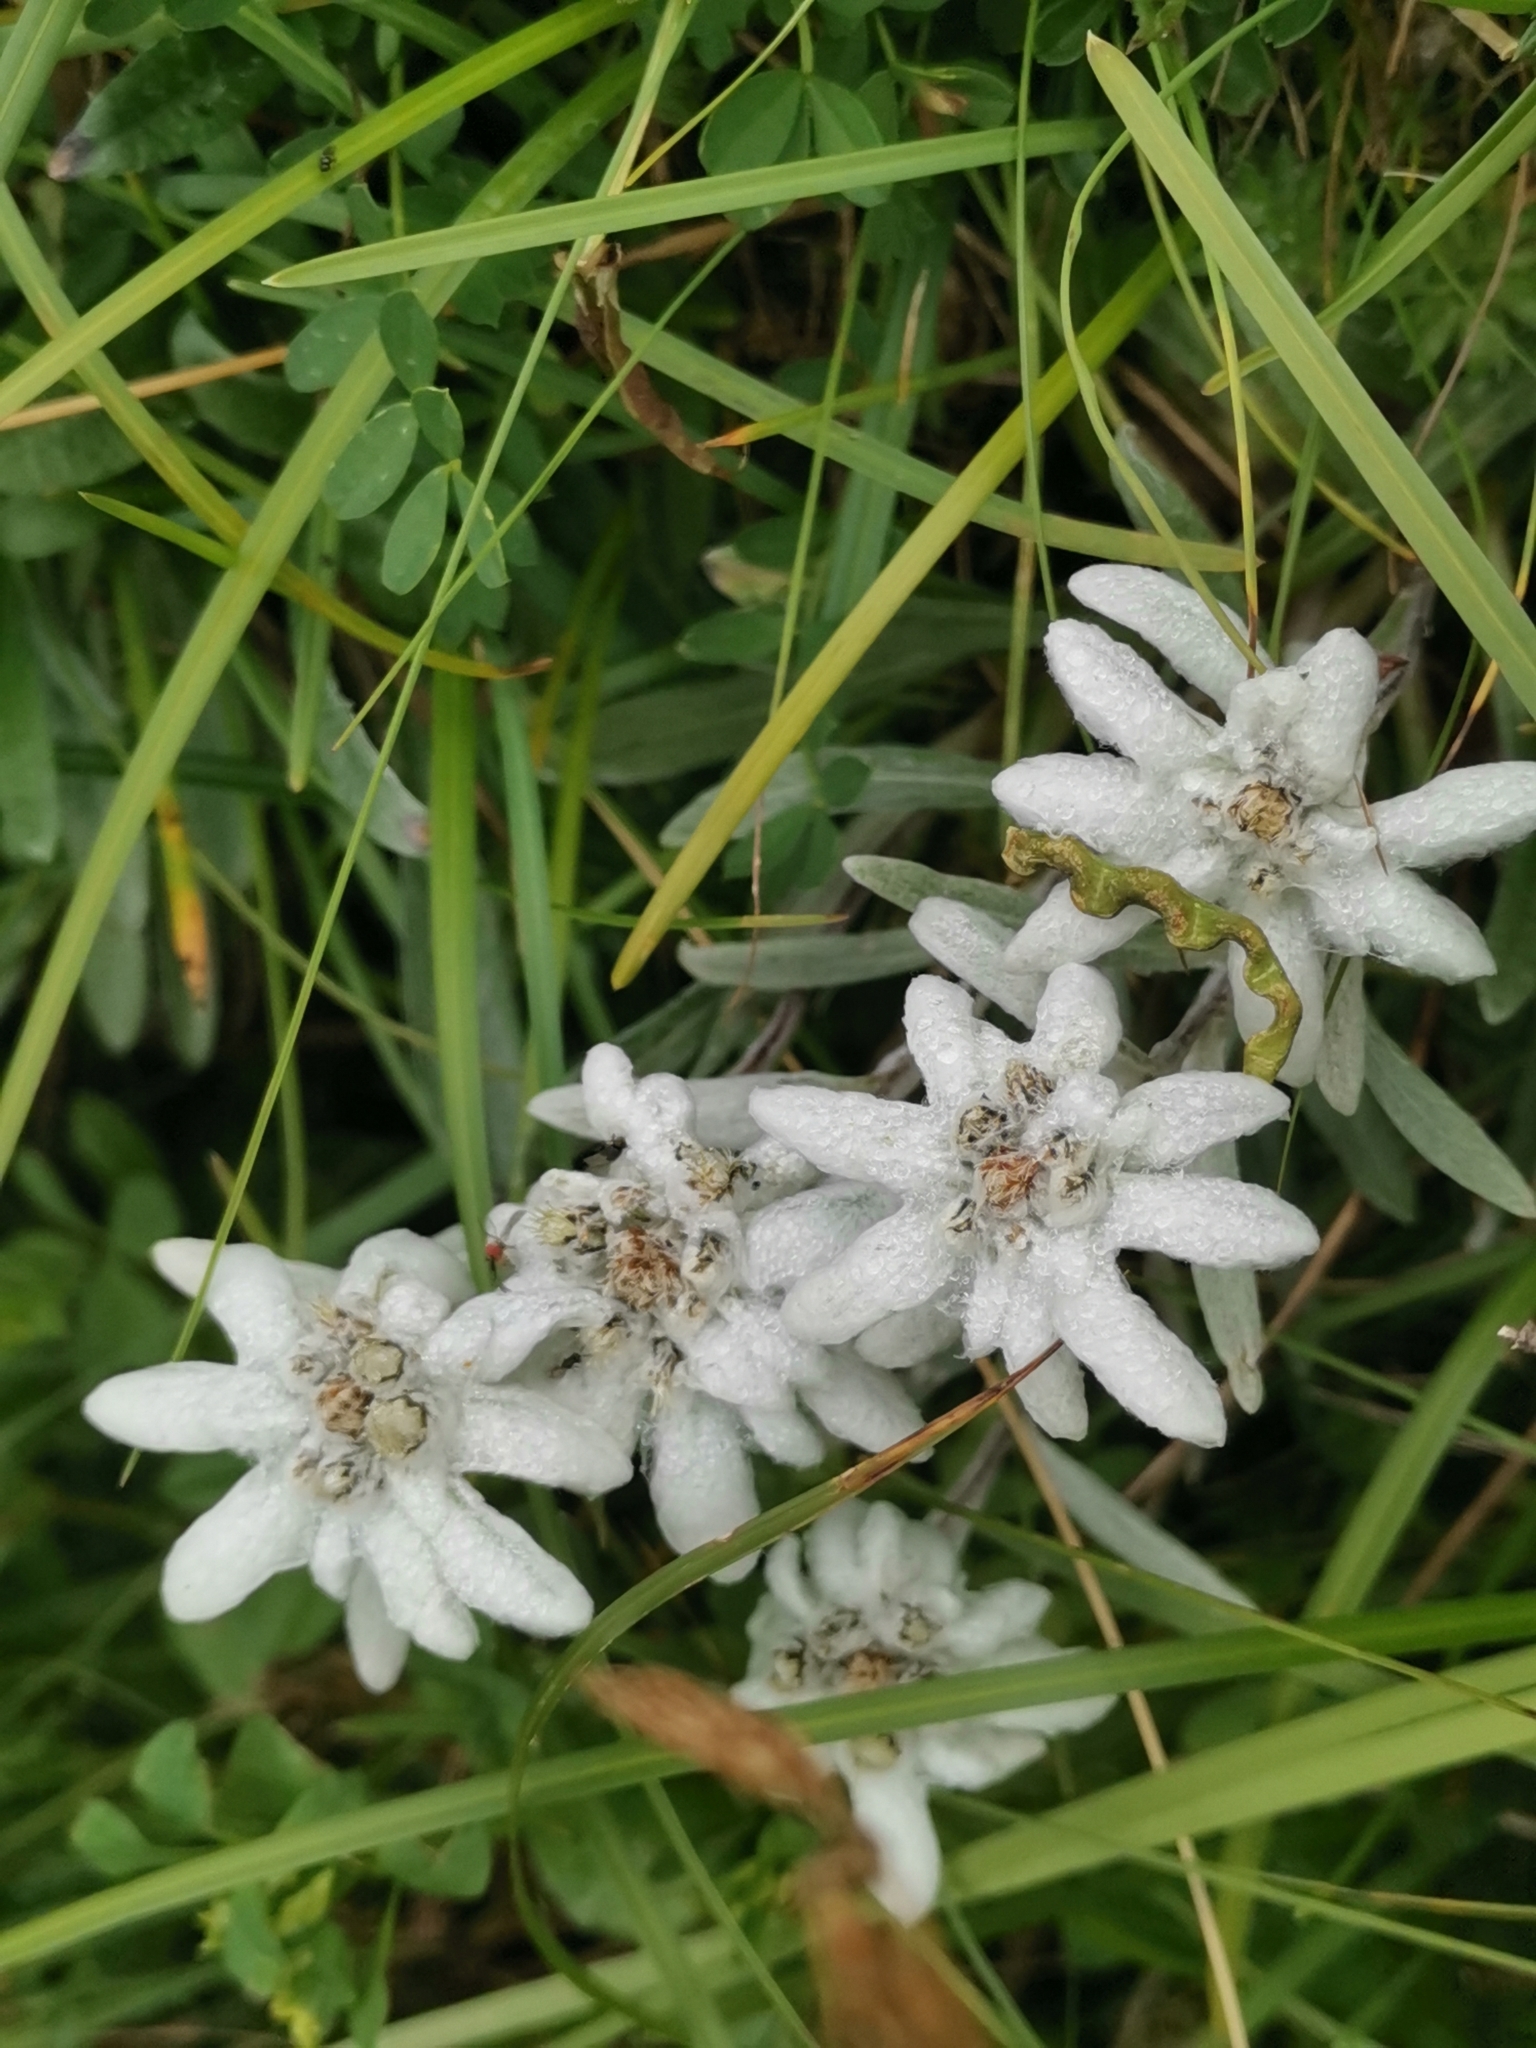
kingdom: Plantae
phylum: Tracheophyta
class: Magnoliopsida
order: Asterales
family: Asteraceae
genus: Leontopodium
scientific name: Leontopodium nivale
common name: Edelweiss
